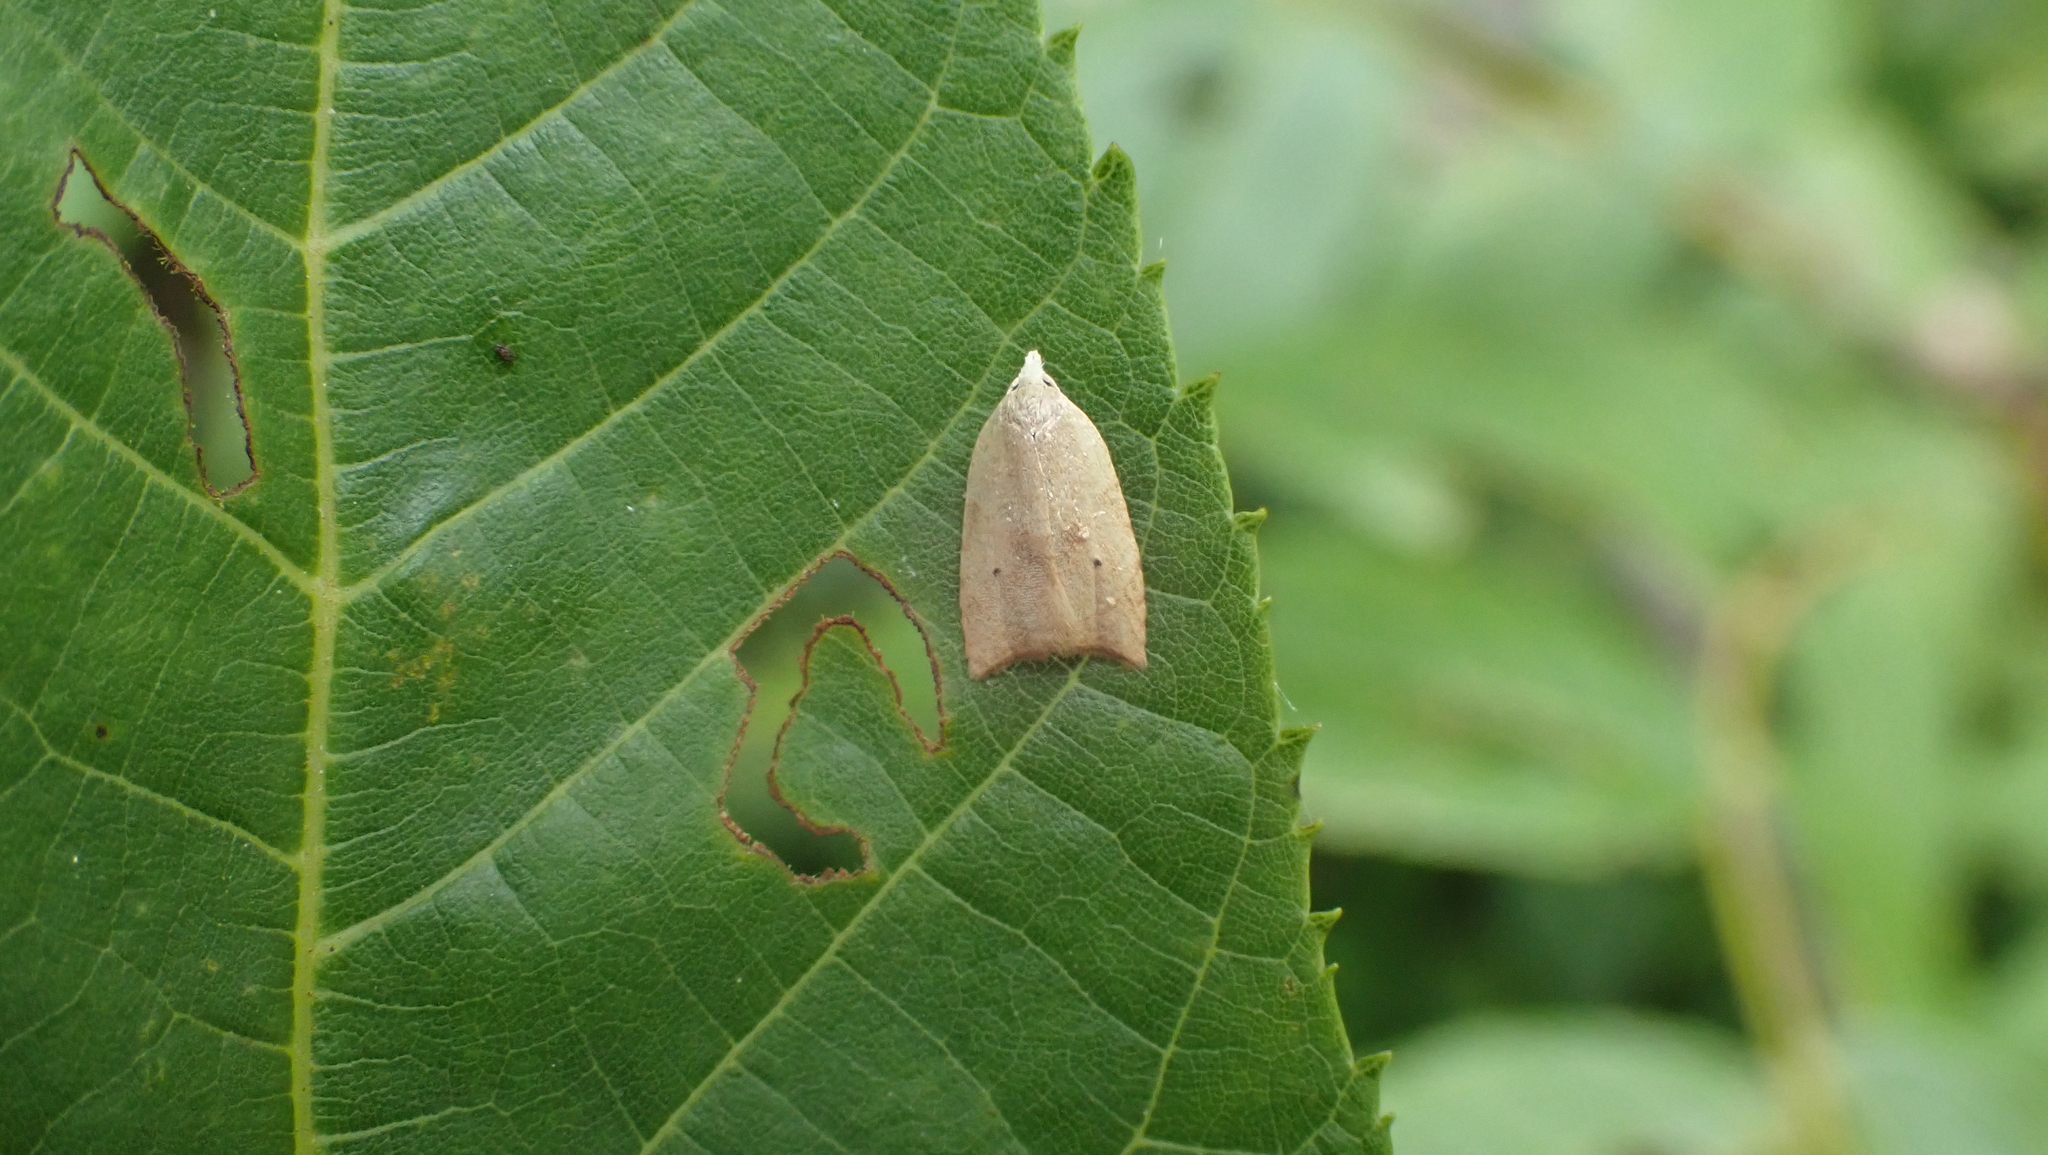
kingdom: Animalia
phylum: Arthropoda
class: Insecta
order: Lepidoptera
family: Tortricidae
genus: Coelostathma
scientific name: Coelostathma discopunctana
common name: Batman moth
